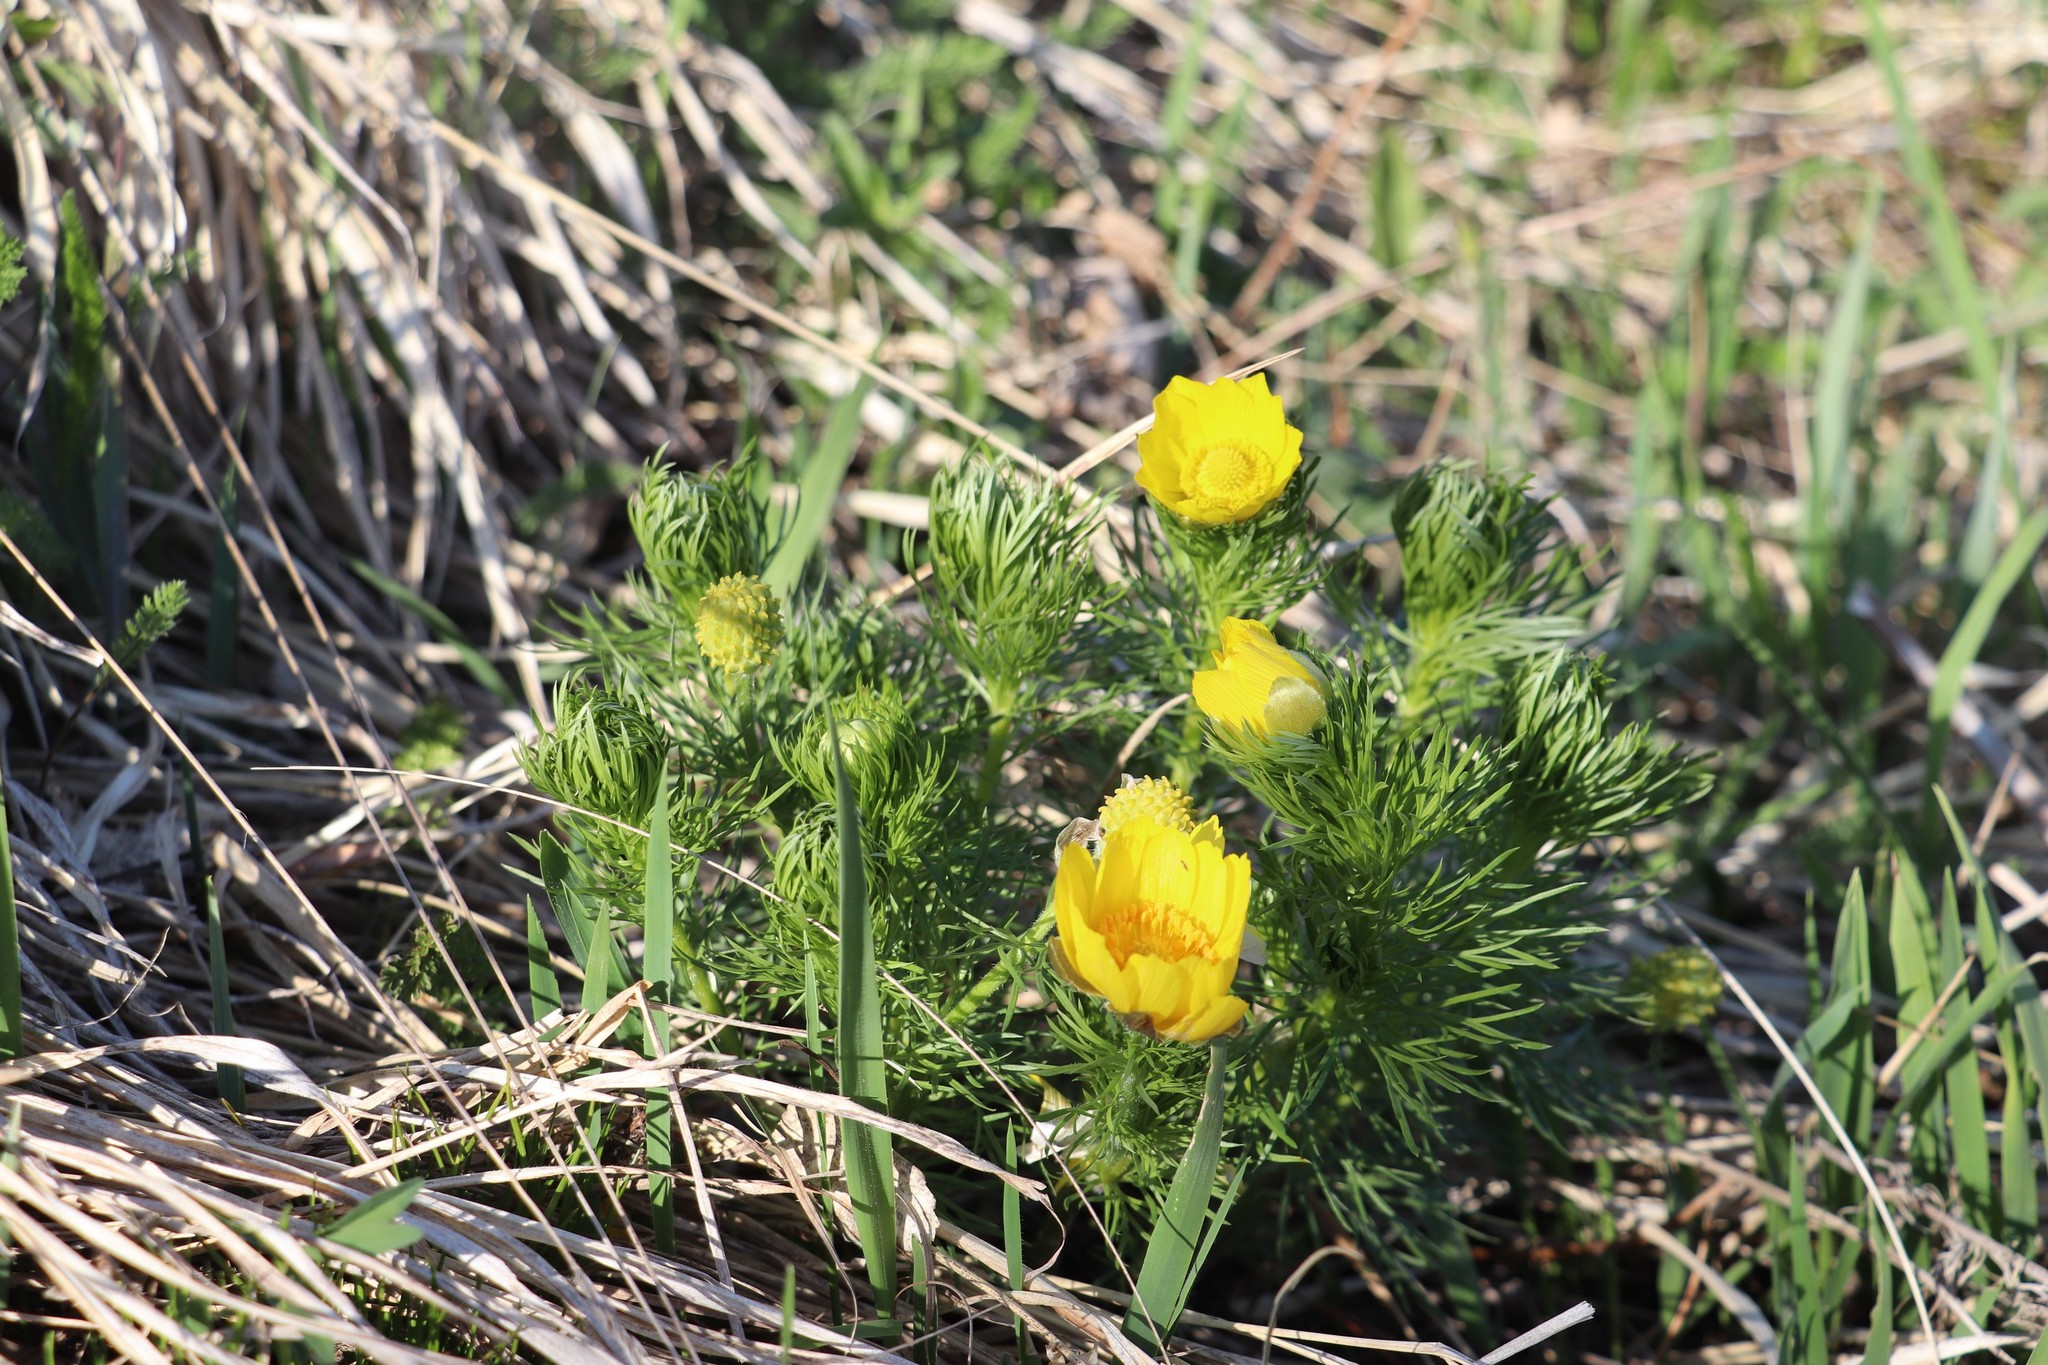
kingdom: Plantae
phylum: Tracheophyta
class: Magnoliopsida
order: Ranunculales
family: Ranunculaceae
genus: Adonis
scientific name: Adonis vernalis
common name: Yellow pheasants-eye
